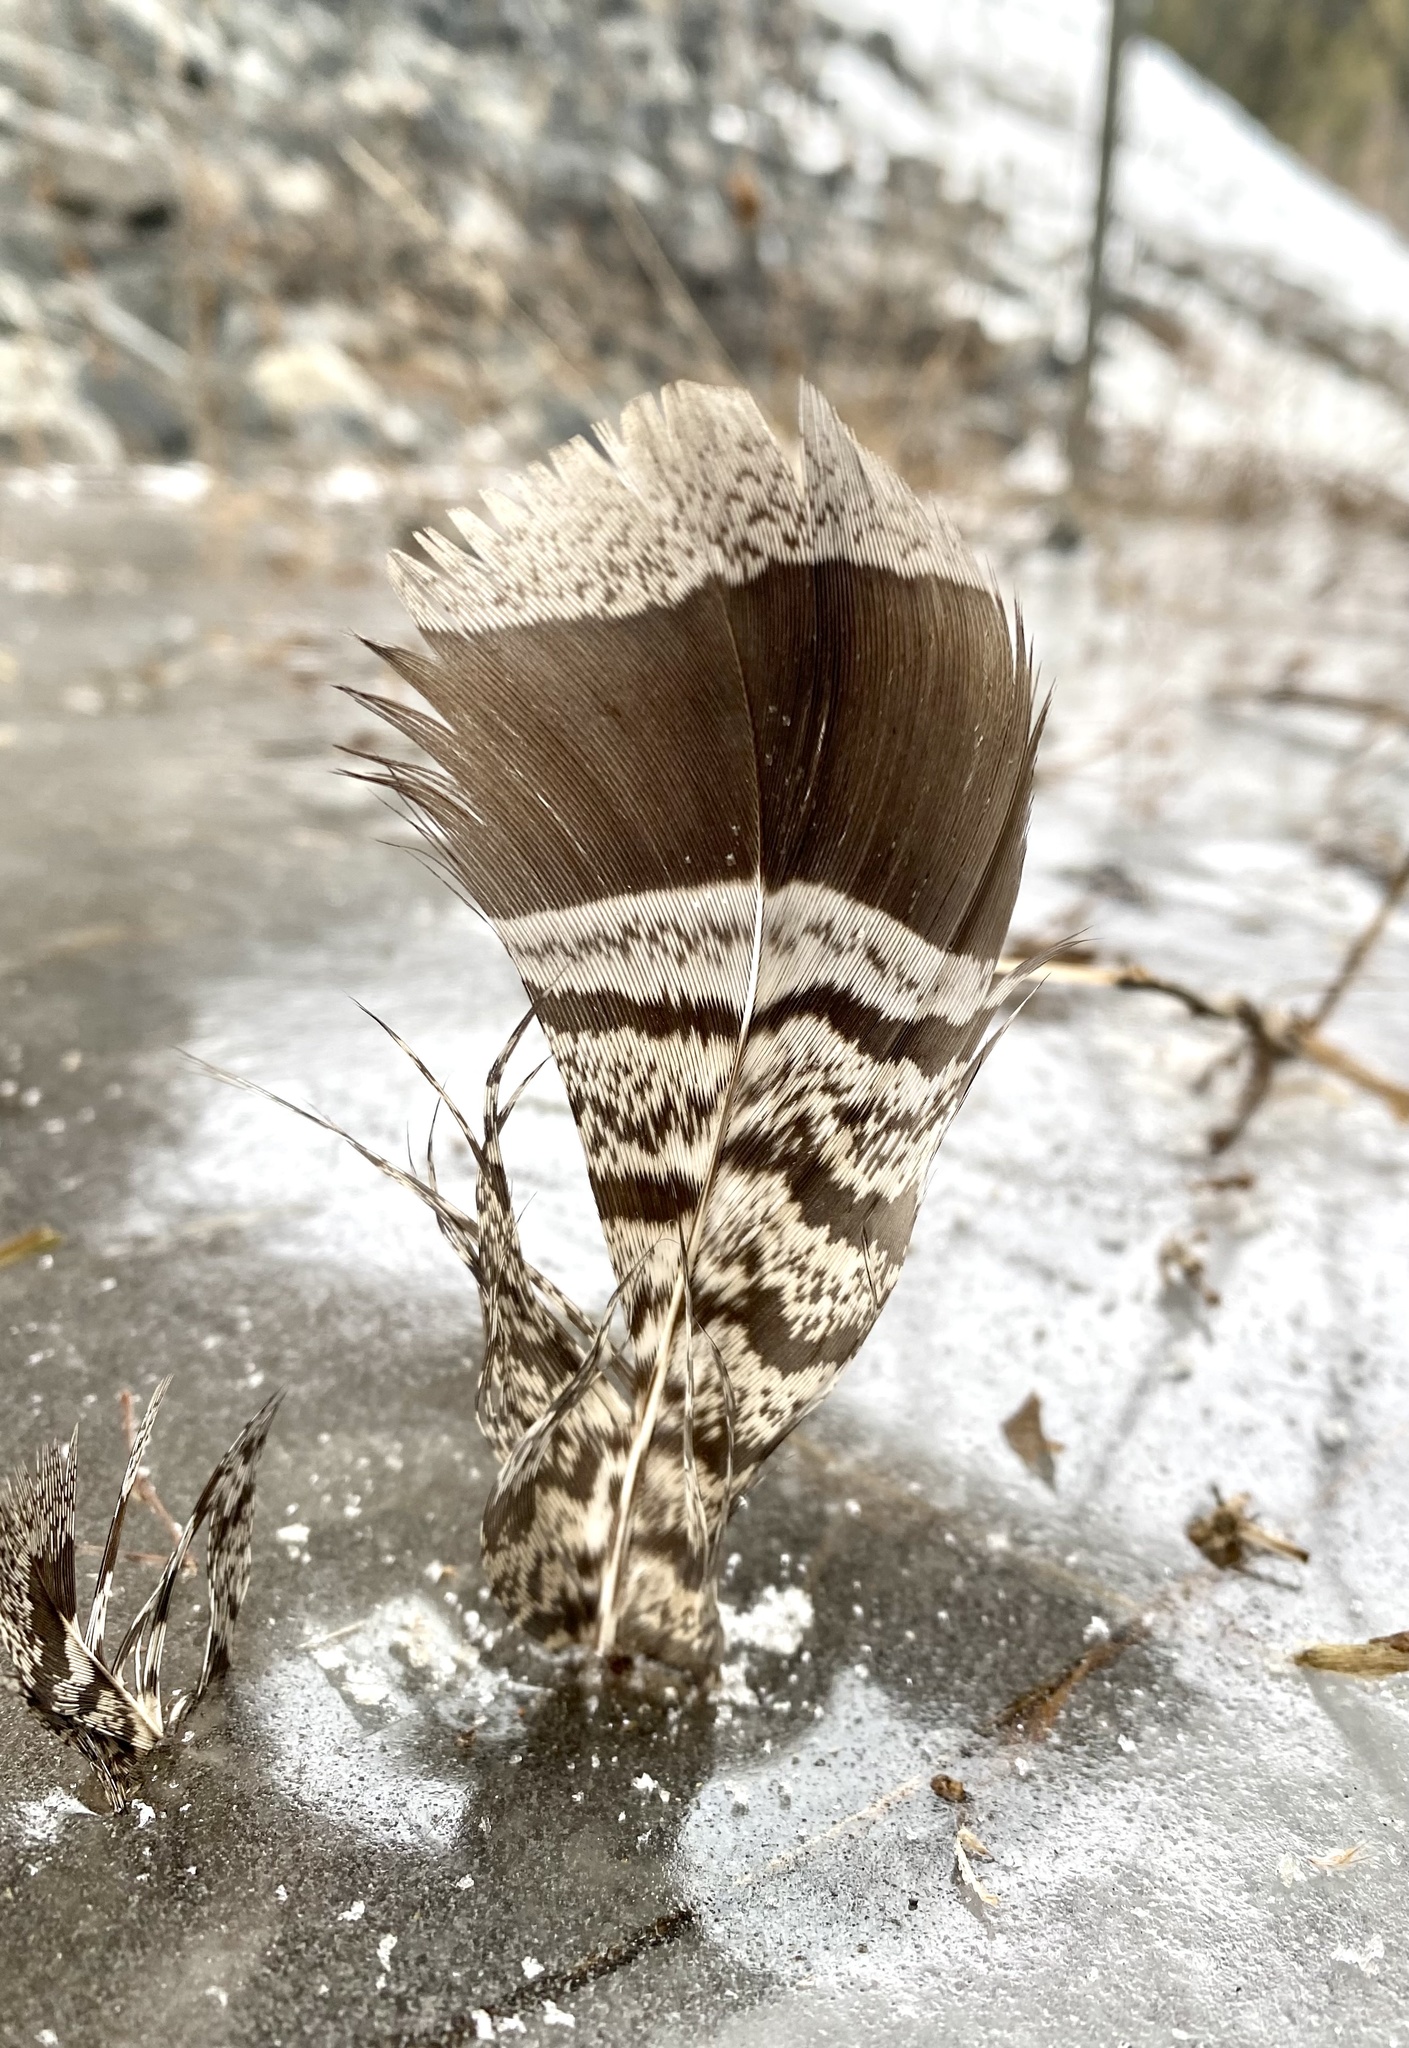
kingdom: Animalia
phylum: Chordata
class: Aves
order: Galliformes
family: Phasianidae
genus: Bonasa
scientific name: Bonasa umbellus
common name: Ruffed grouse
